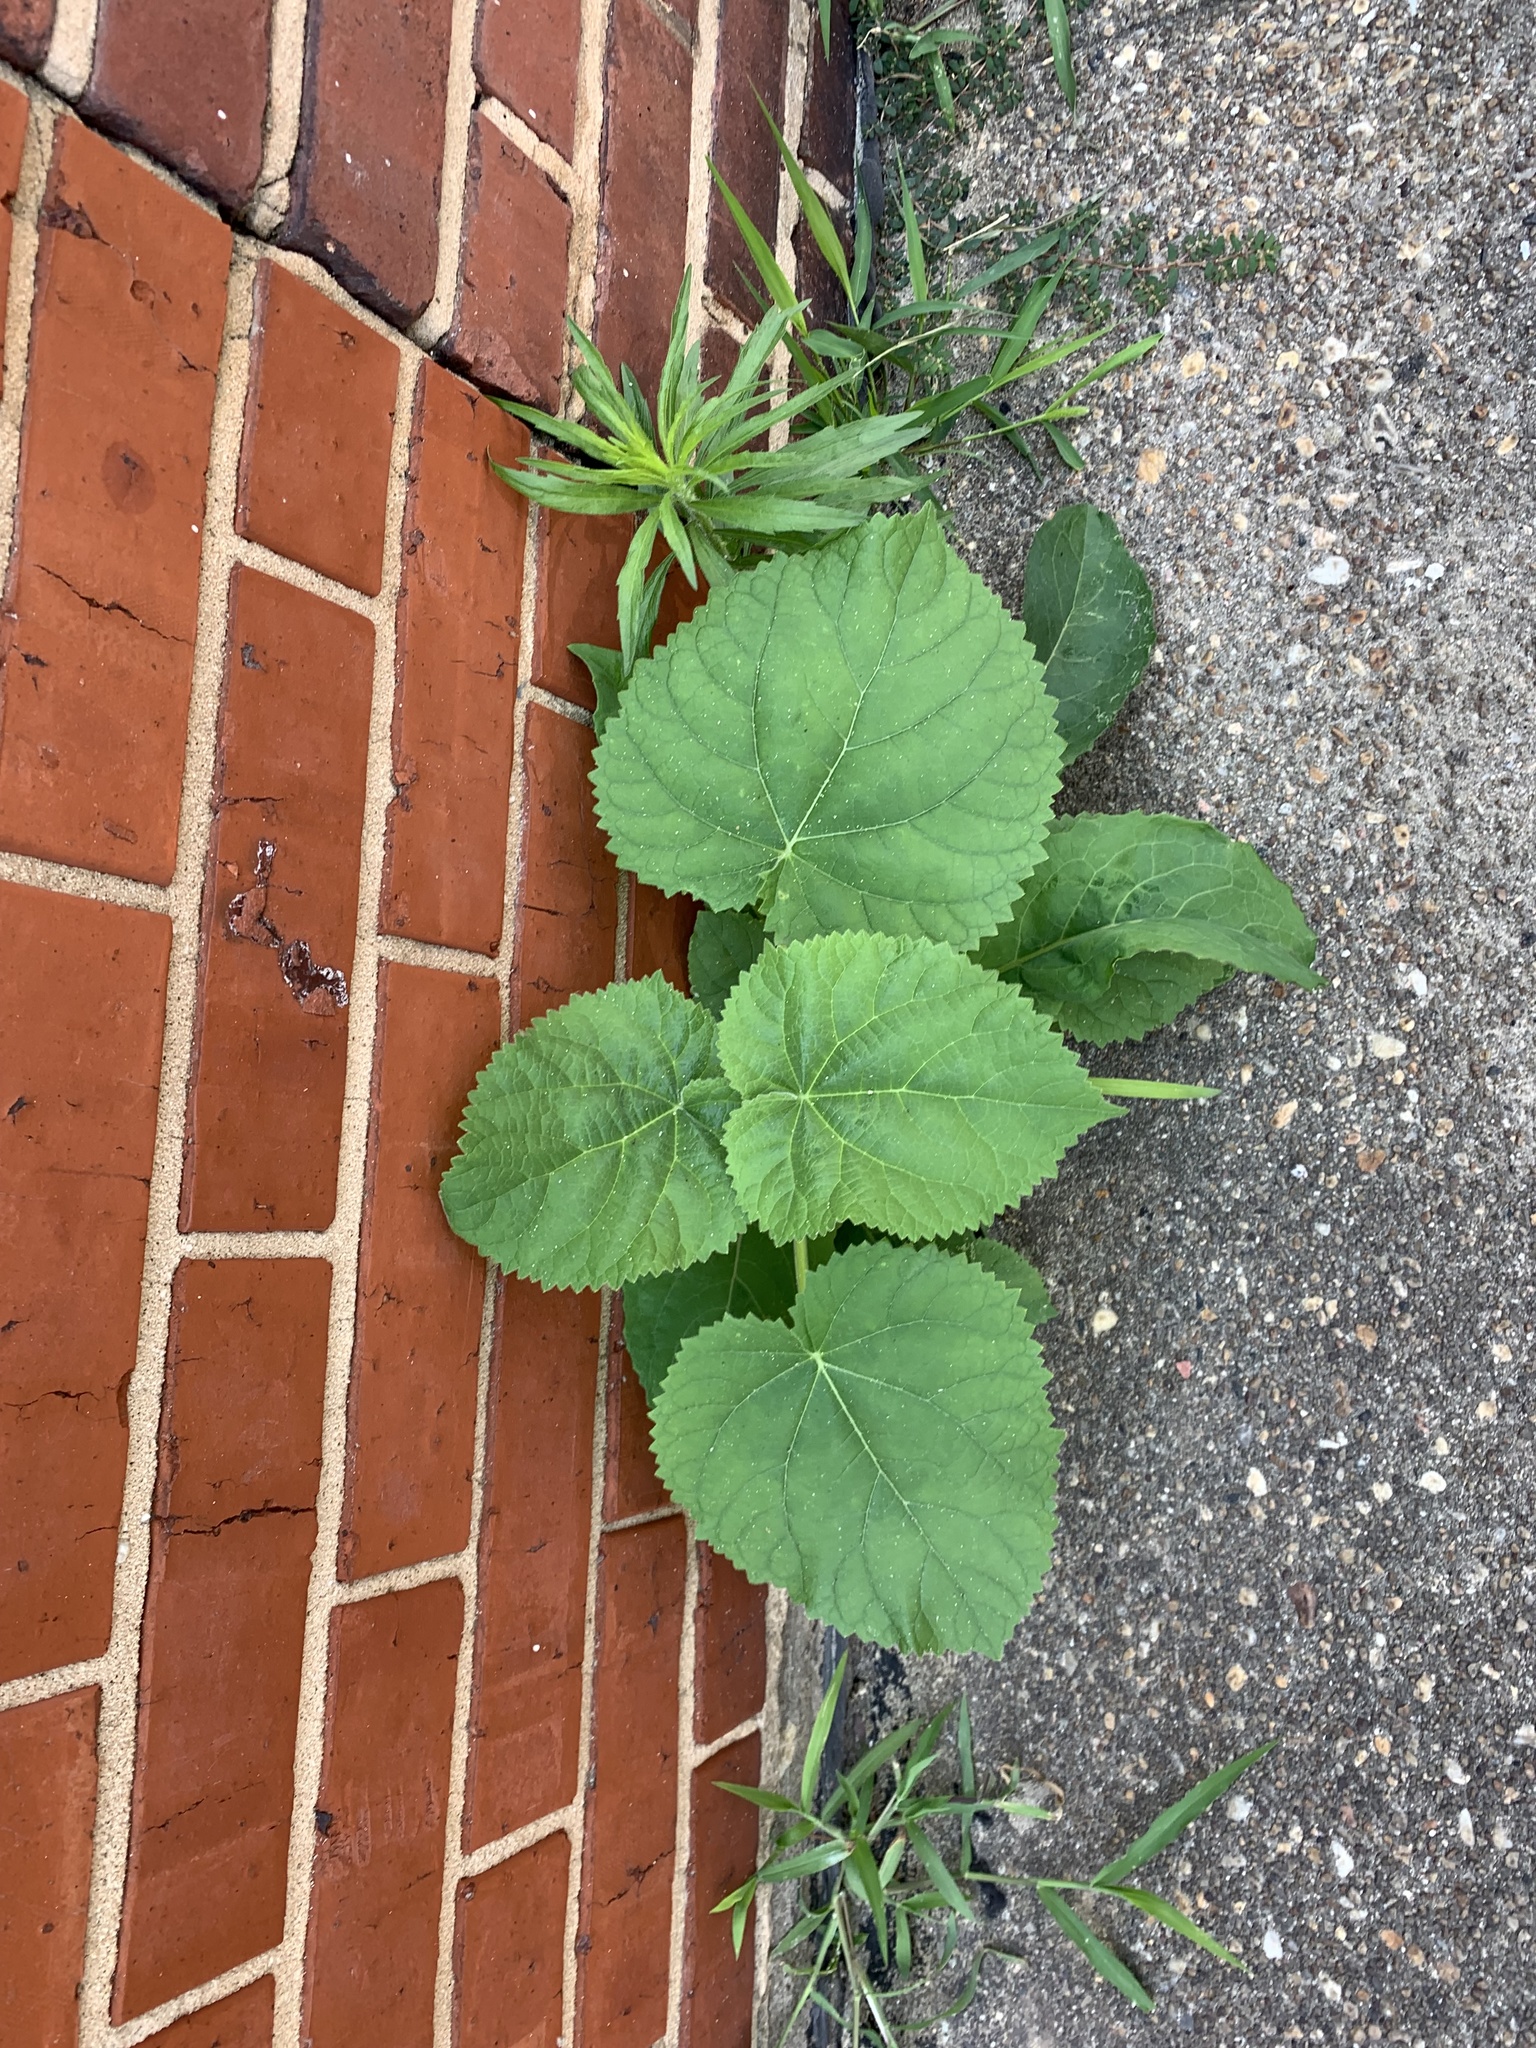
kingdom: Plantae
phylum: Tracheophyta
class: Magnoliopsida
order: Lamiales
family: Paulowniaceae
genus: Paulownia
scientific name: Paulownia tomentosa
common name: Foxglove-tree
